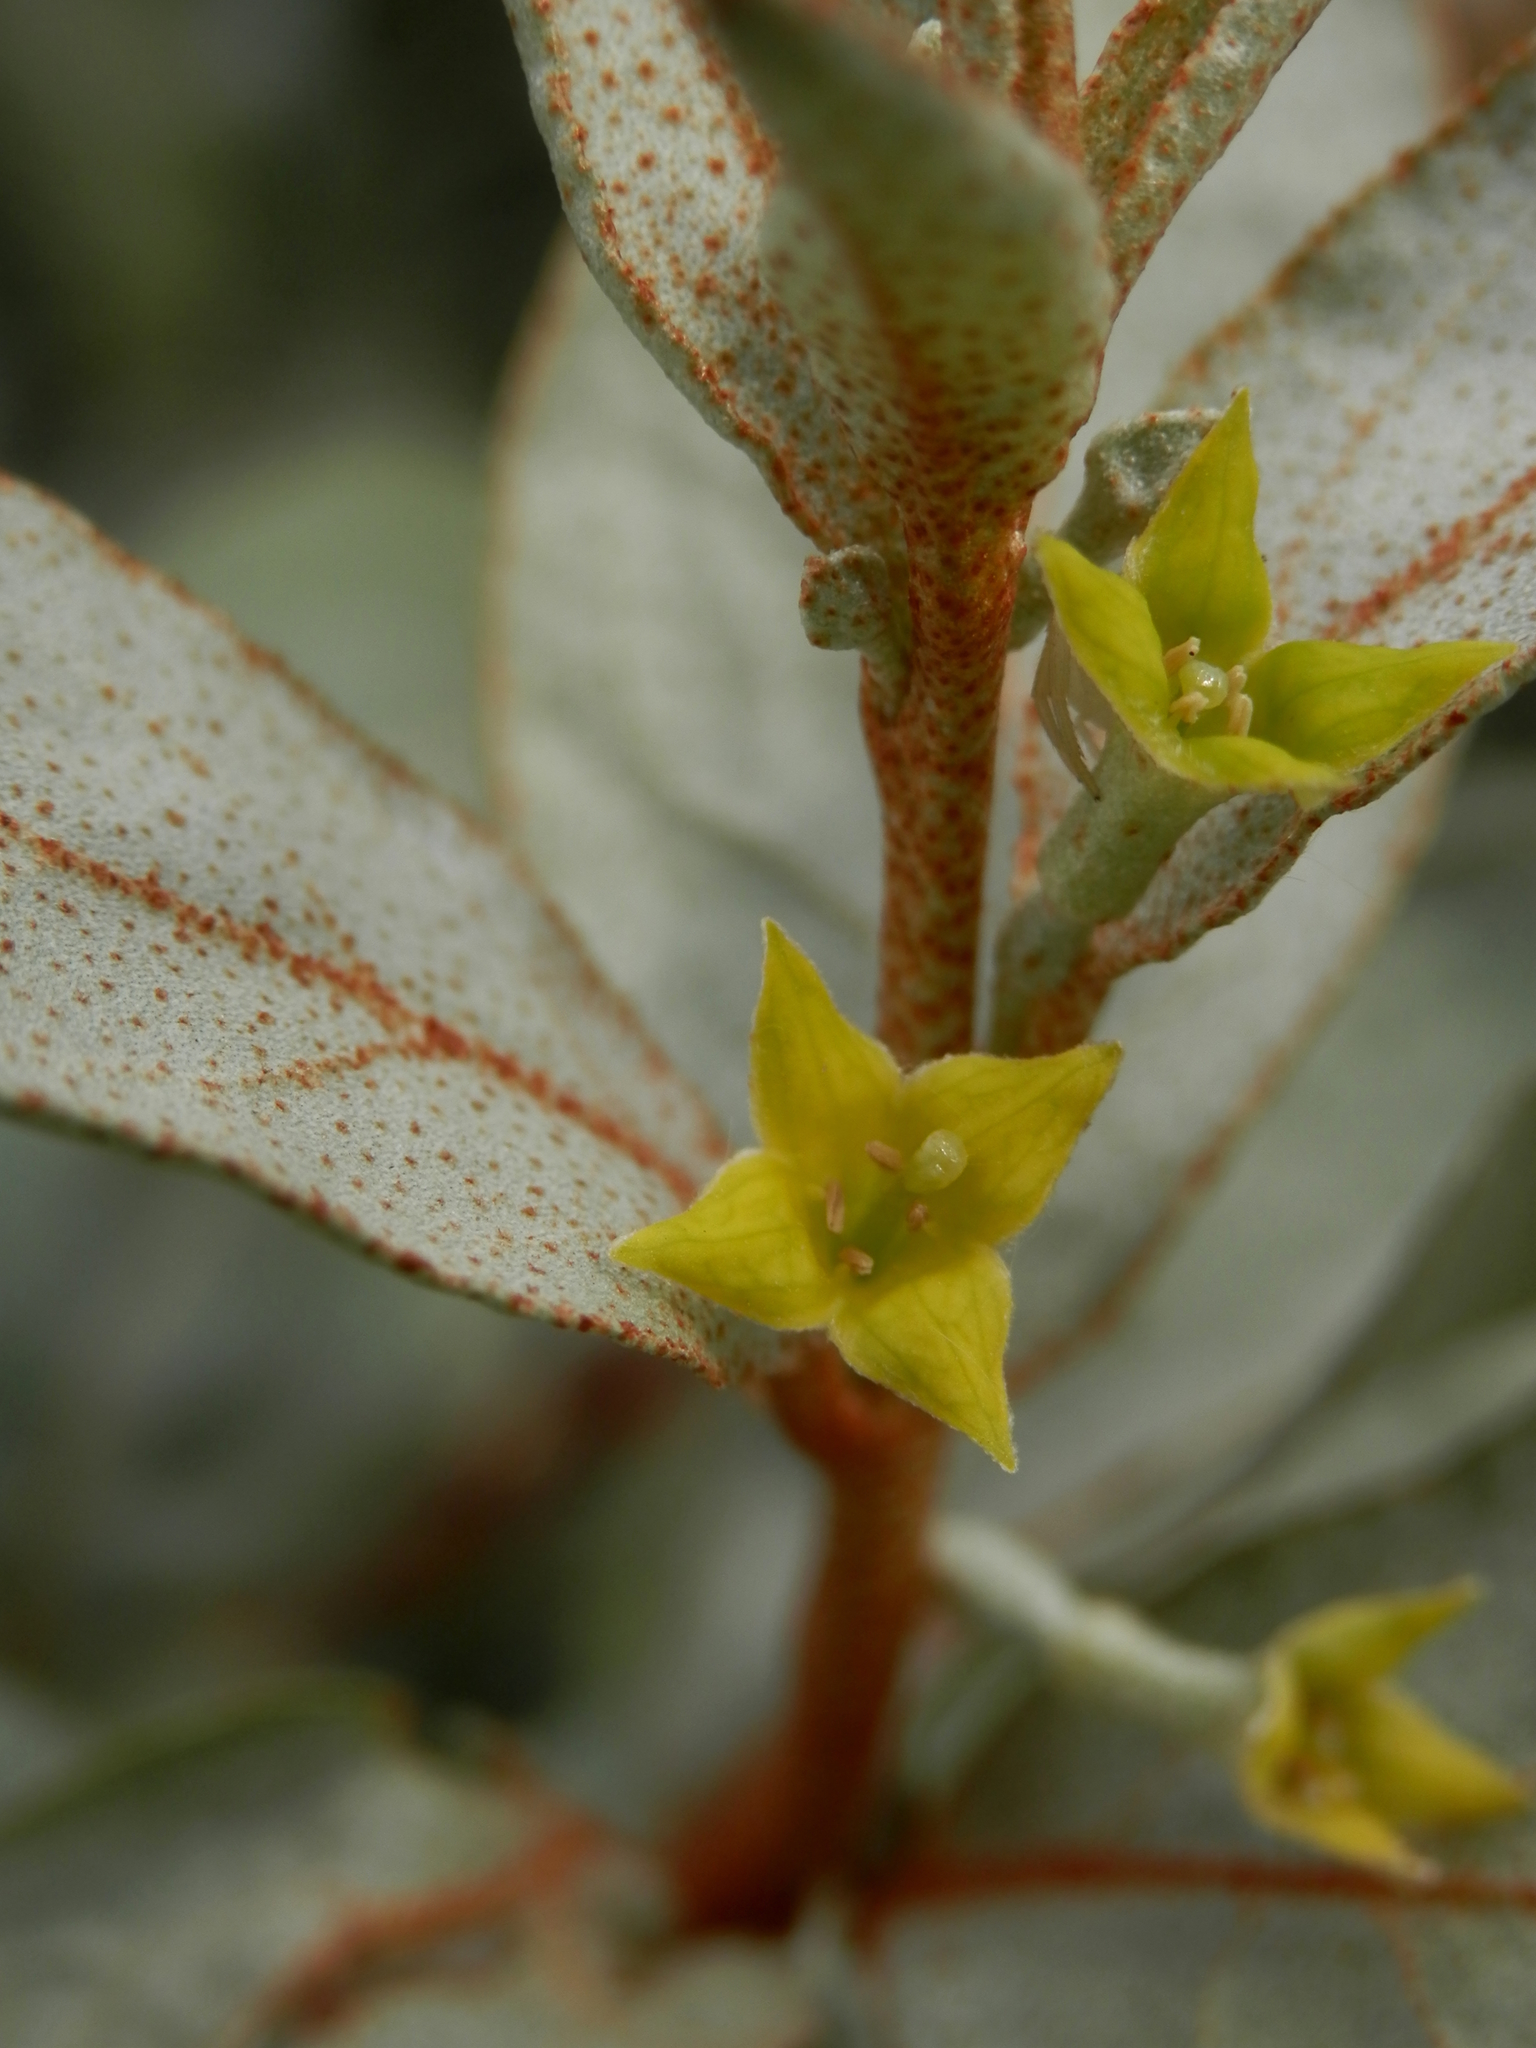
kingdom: Plantae
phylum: Tracheophyta
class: Magnoliopsida
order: Rosales
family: Elaeagnaceae
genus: Elaeagnus
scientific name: Elaeagnus commutata
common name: Silverberry
